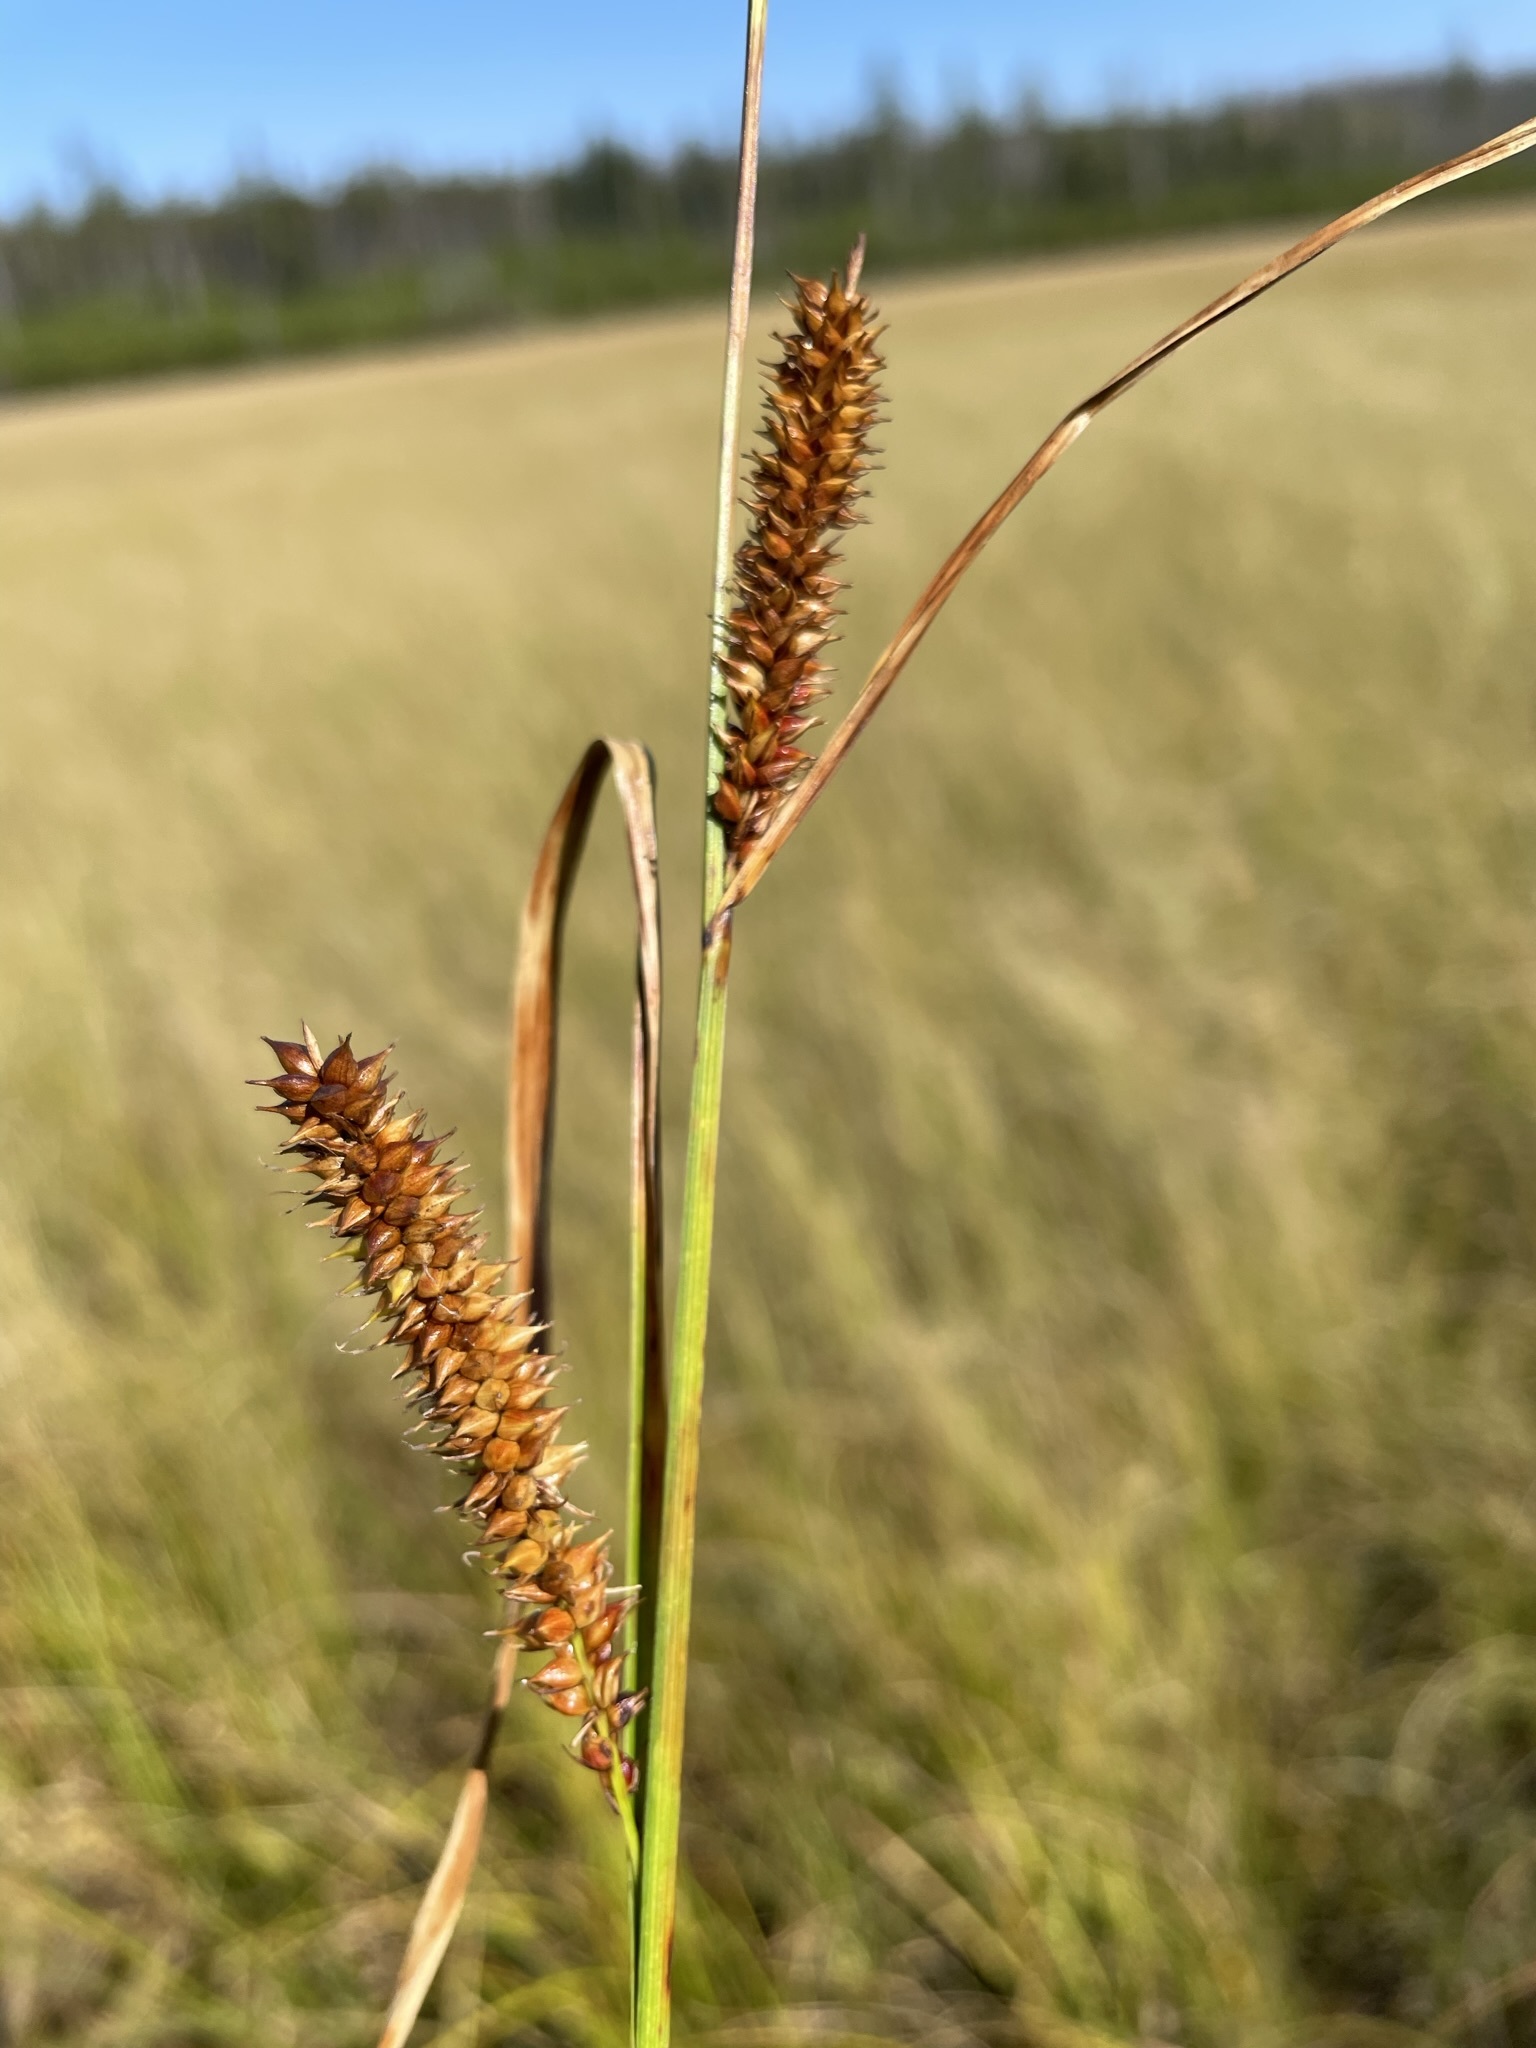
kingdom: Plantae
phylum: Tracheophyta
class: Liliopsida
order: Poales
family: Cyperaceae
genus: Carex
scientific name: Carex utriculata
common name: Beaked sedge
